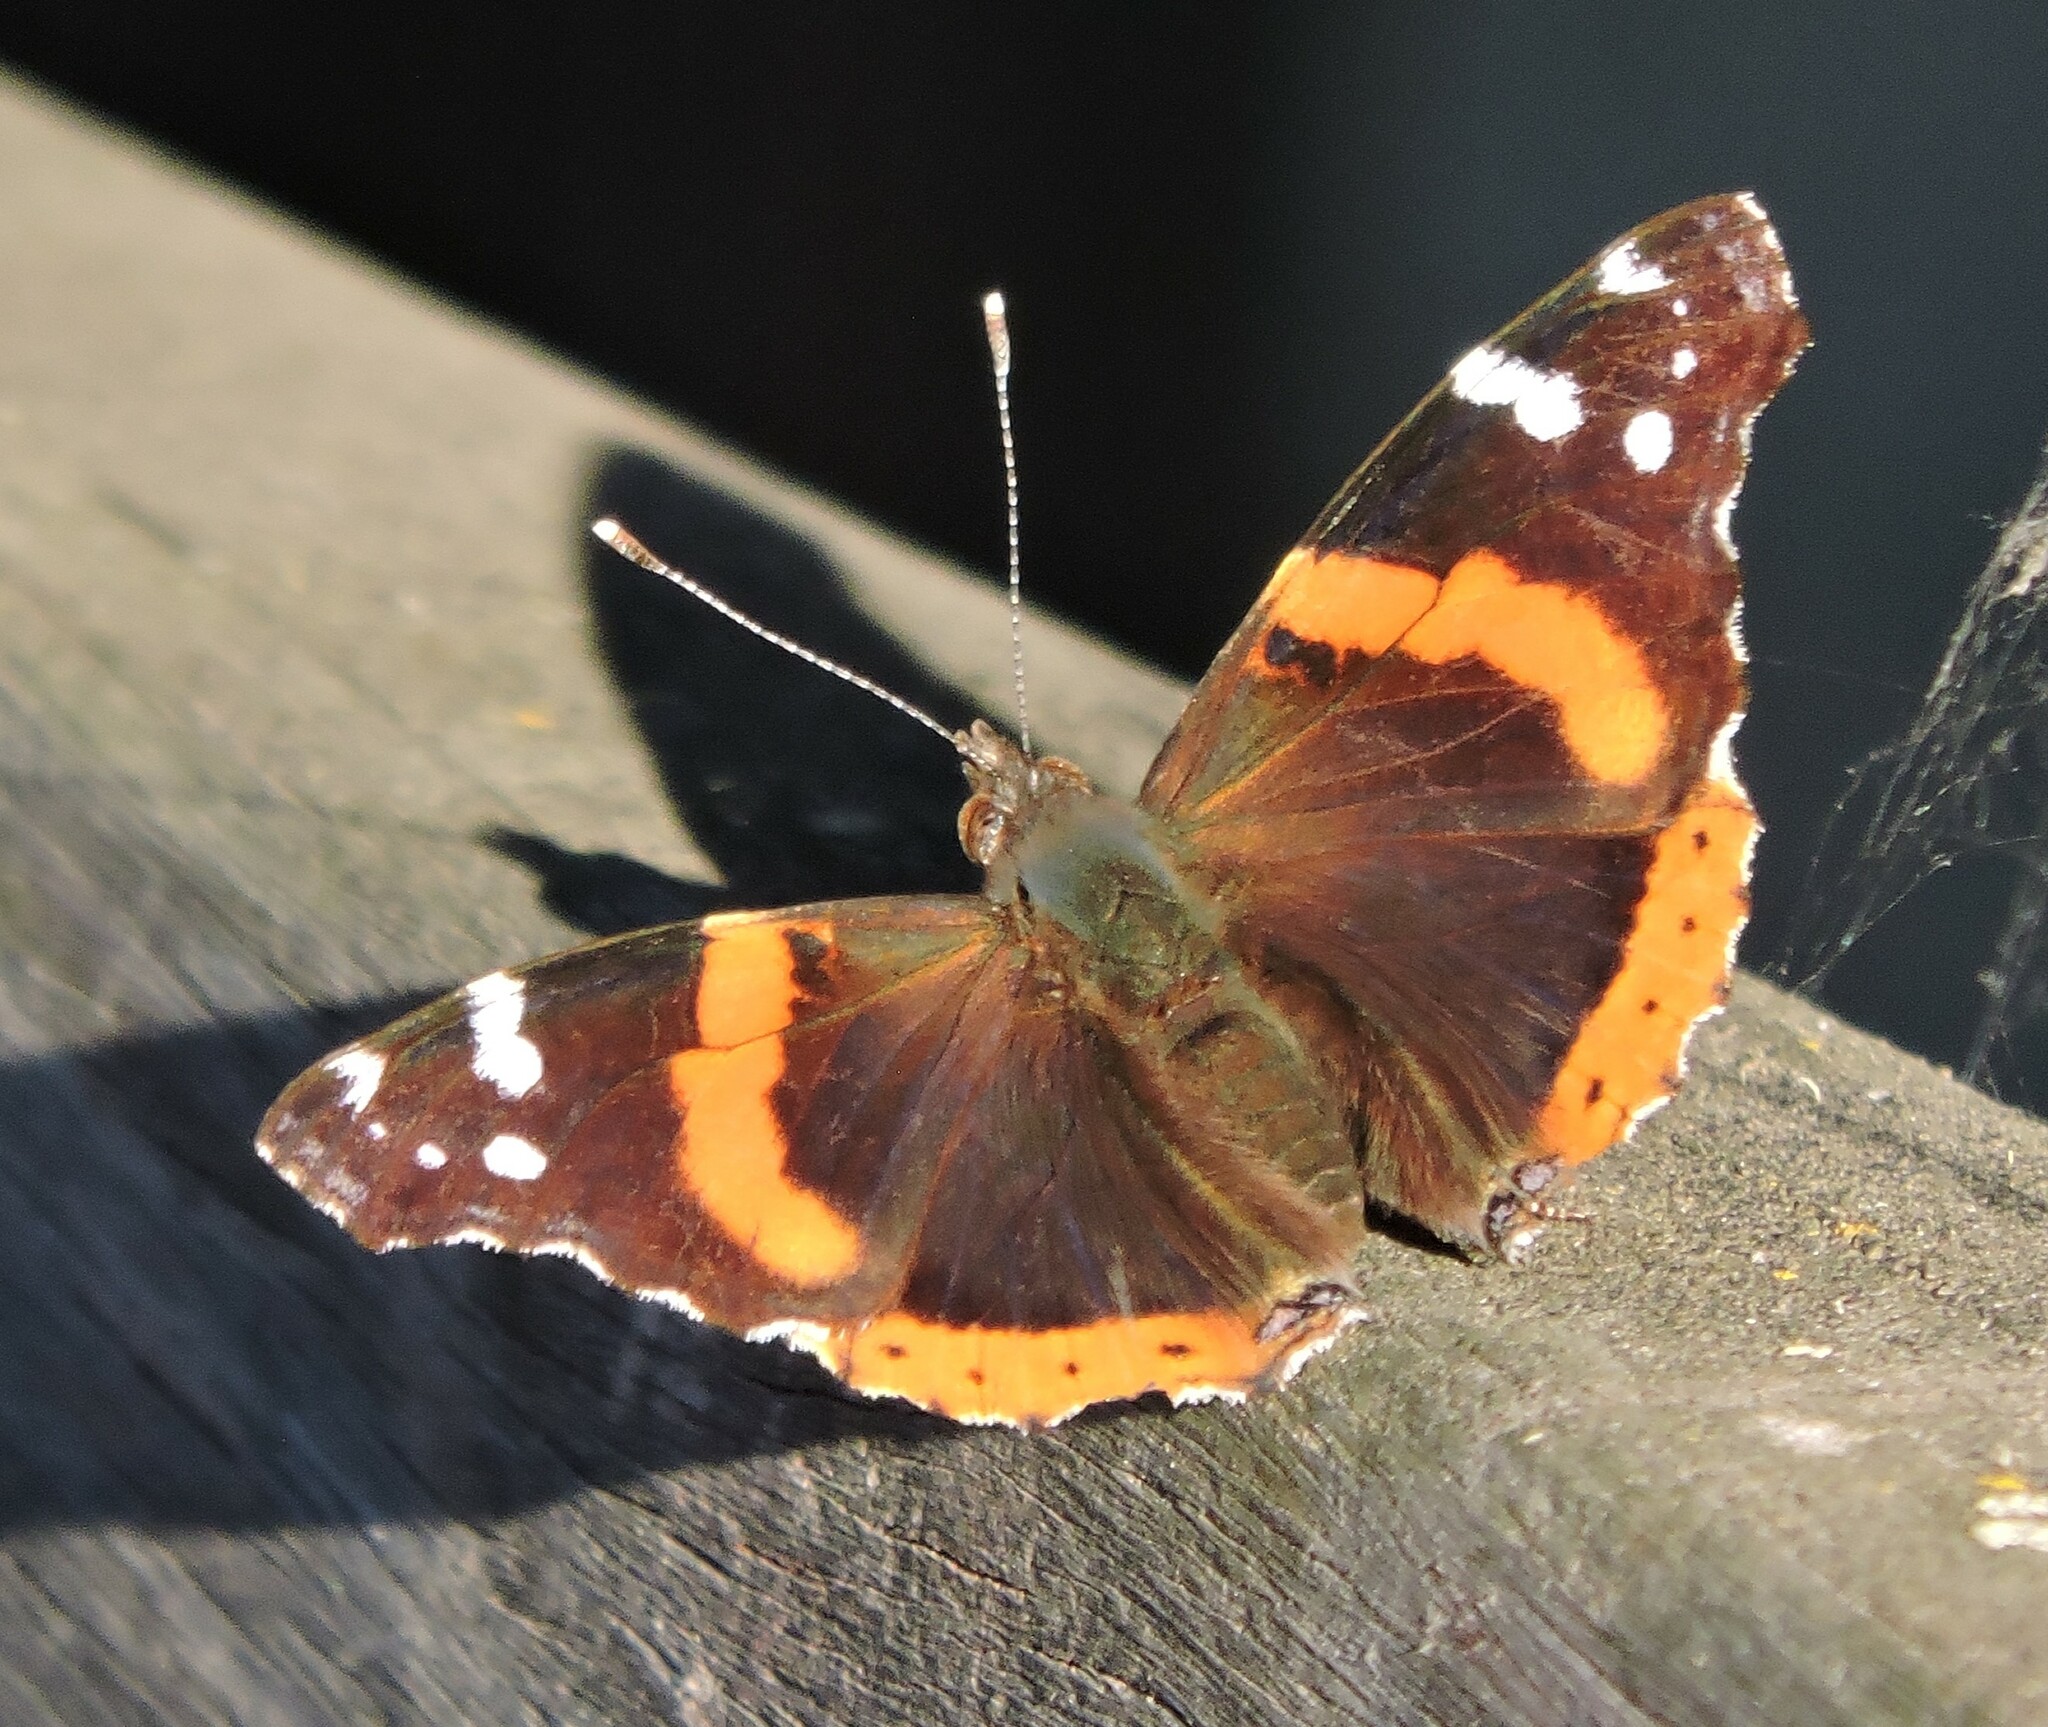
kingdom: Animalia
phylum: Arthropoda
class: Insecta
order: Lepidoptera
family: Nymphalidae
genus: Vanessa
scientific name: Vanessa atalanta
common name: Red admiral
